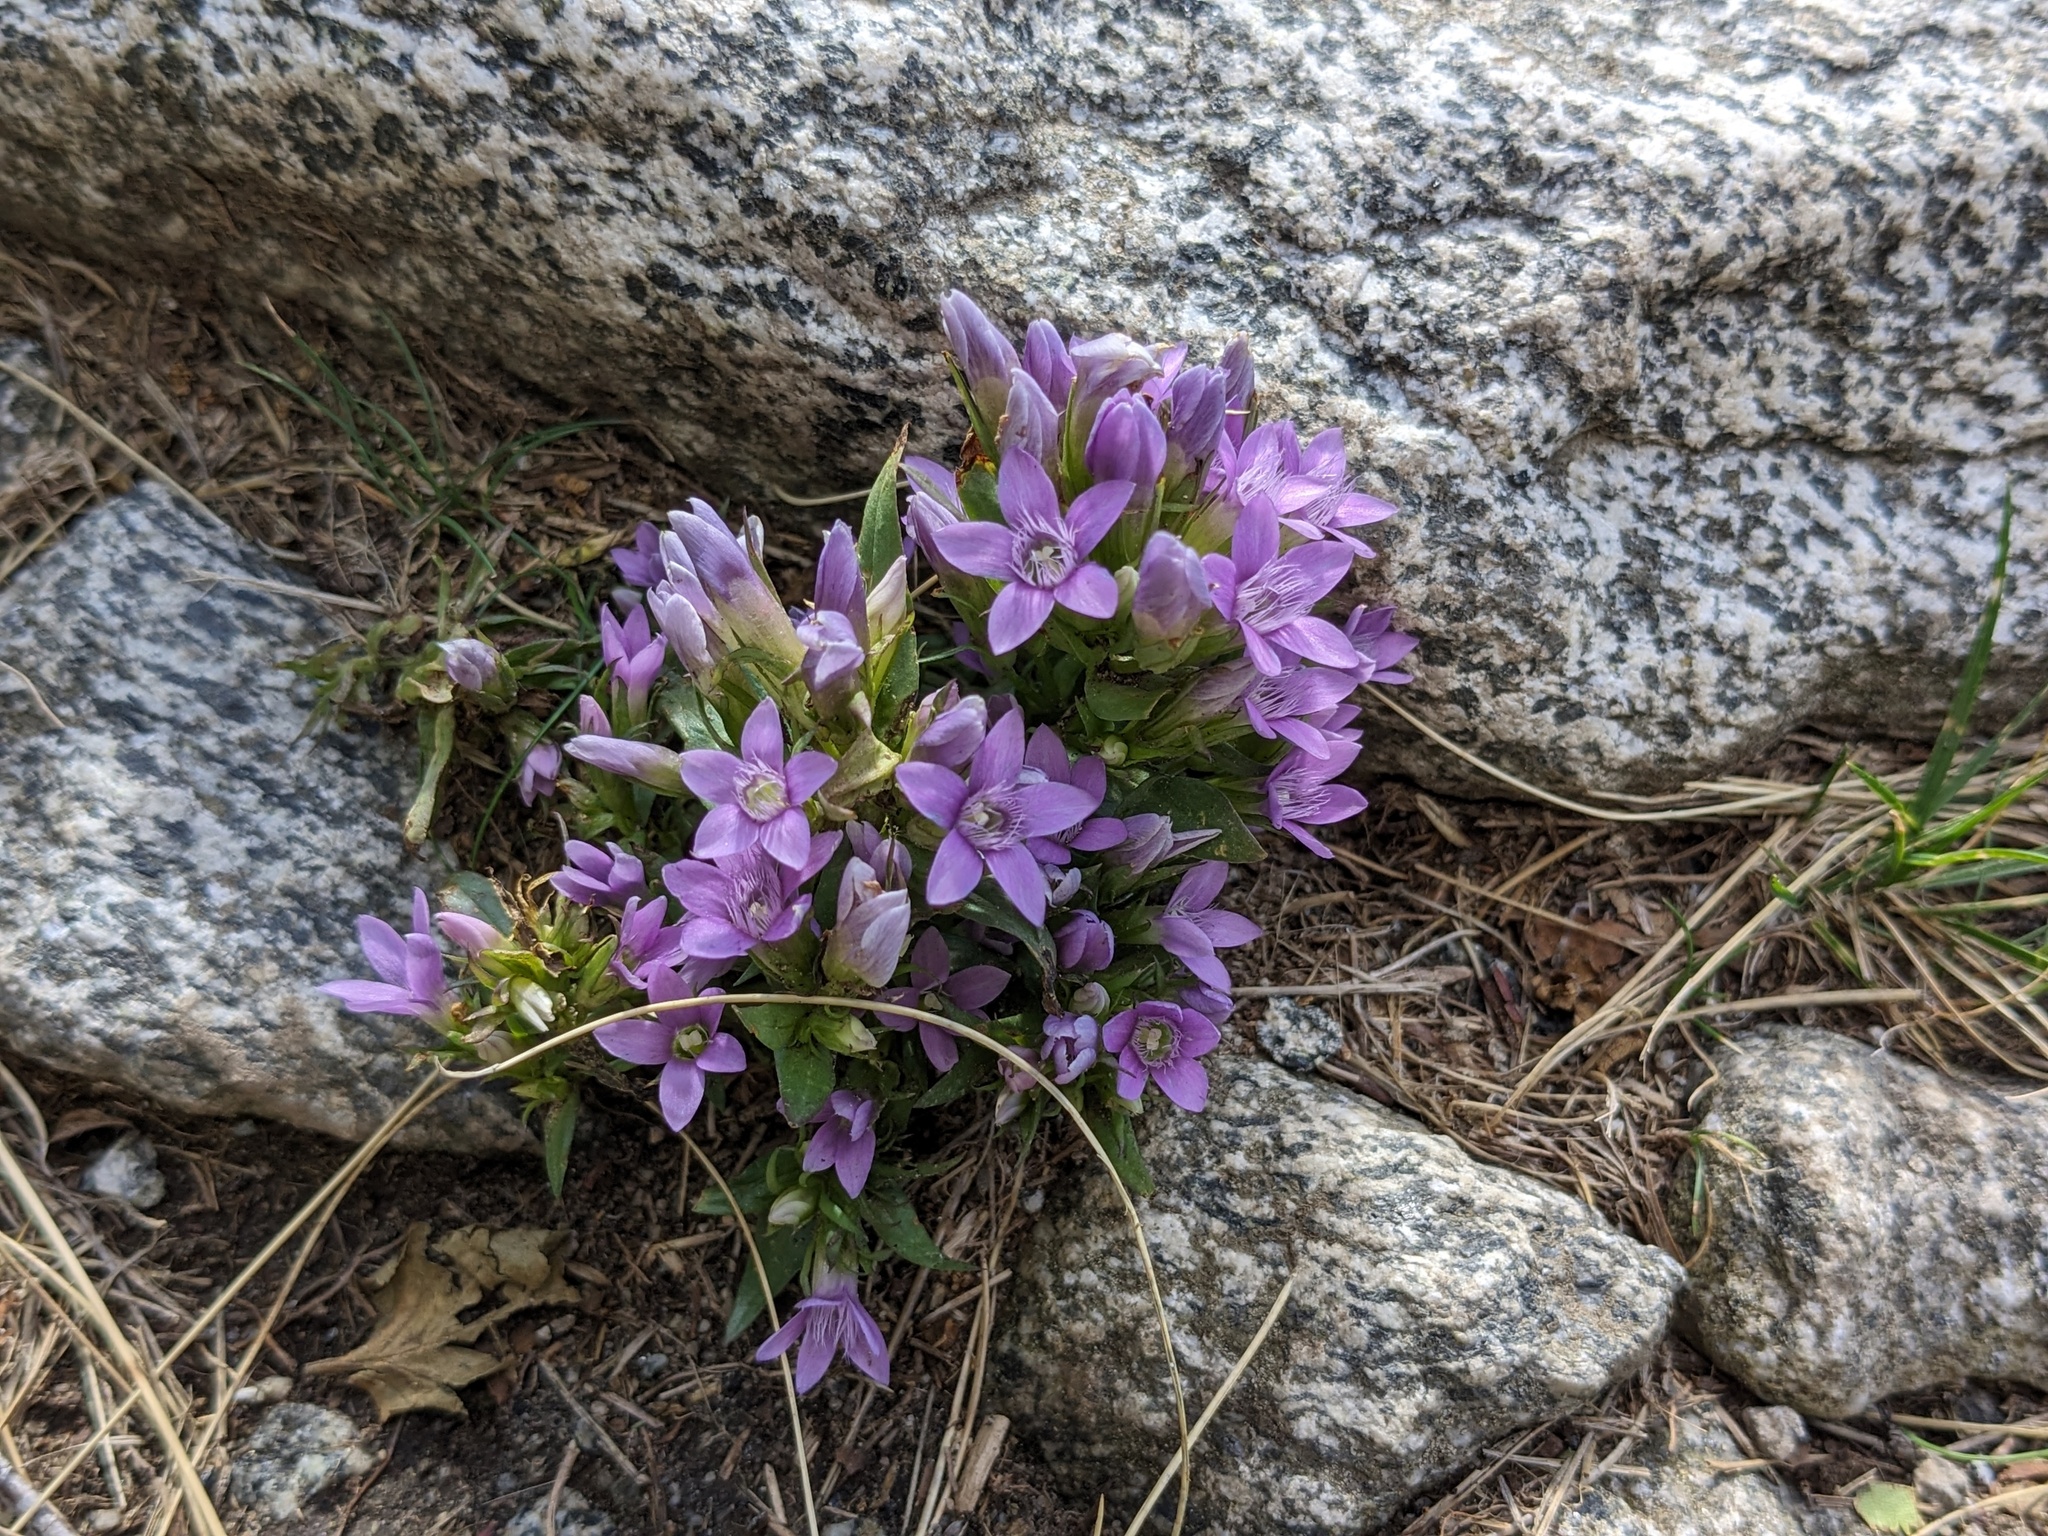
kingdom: Plantae
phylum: Tracheophyta
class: Magnoliopsida
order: Gentianales
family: Gentianaceae
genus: Gentianella
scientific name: Gentianella ramosa
